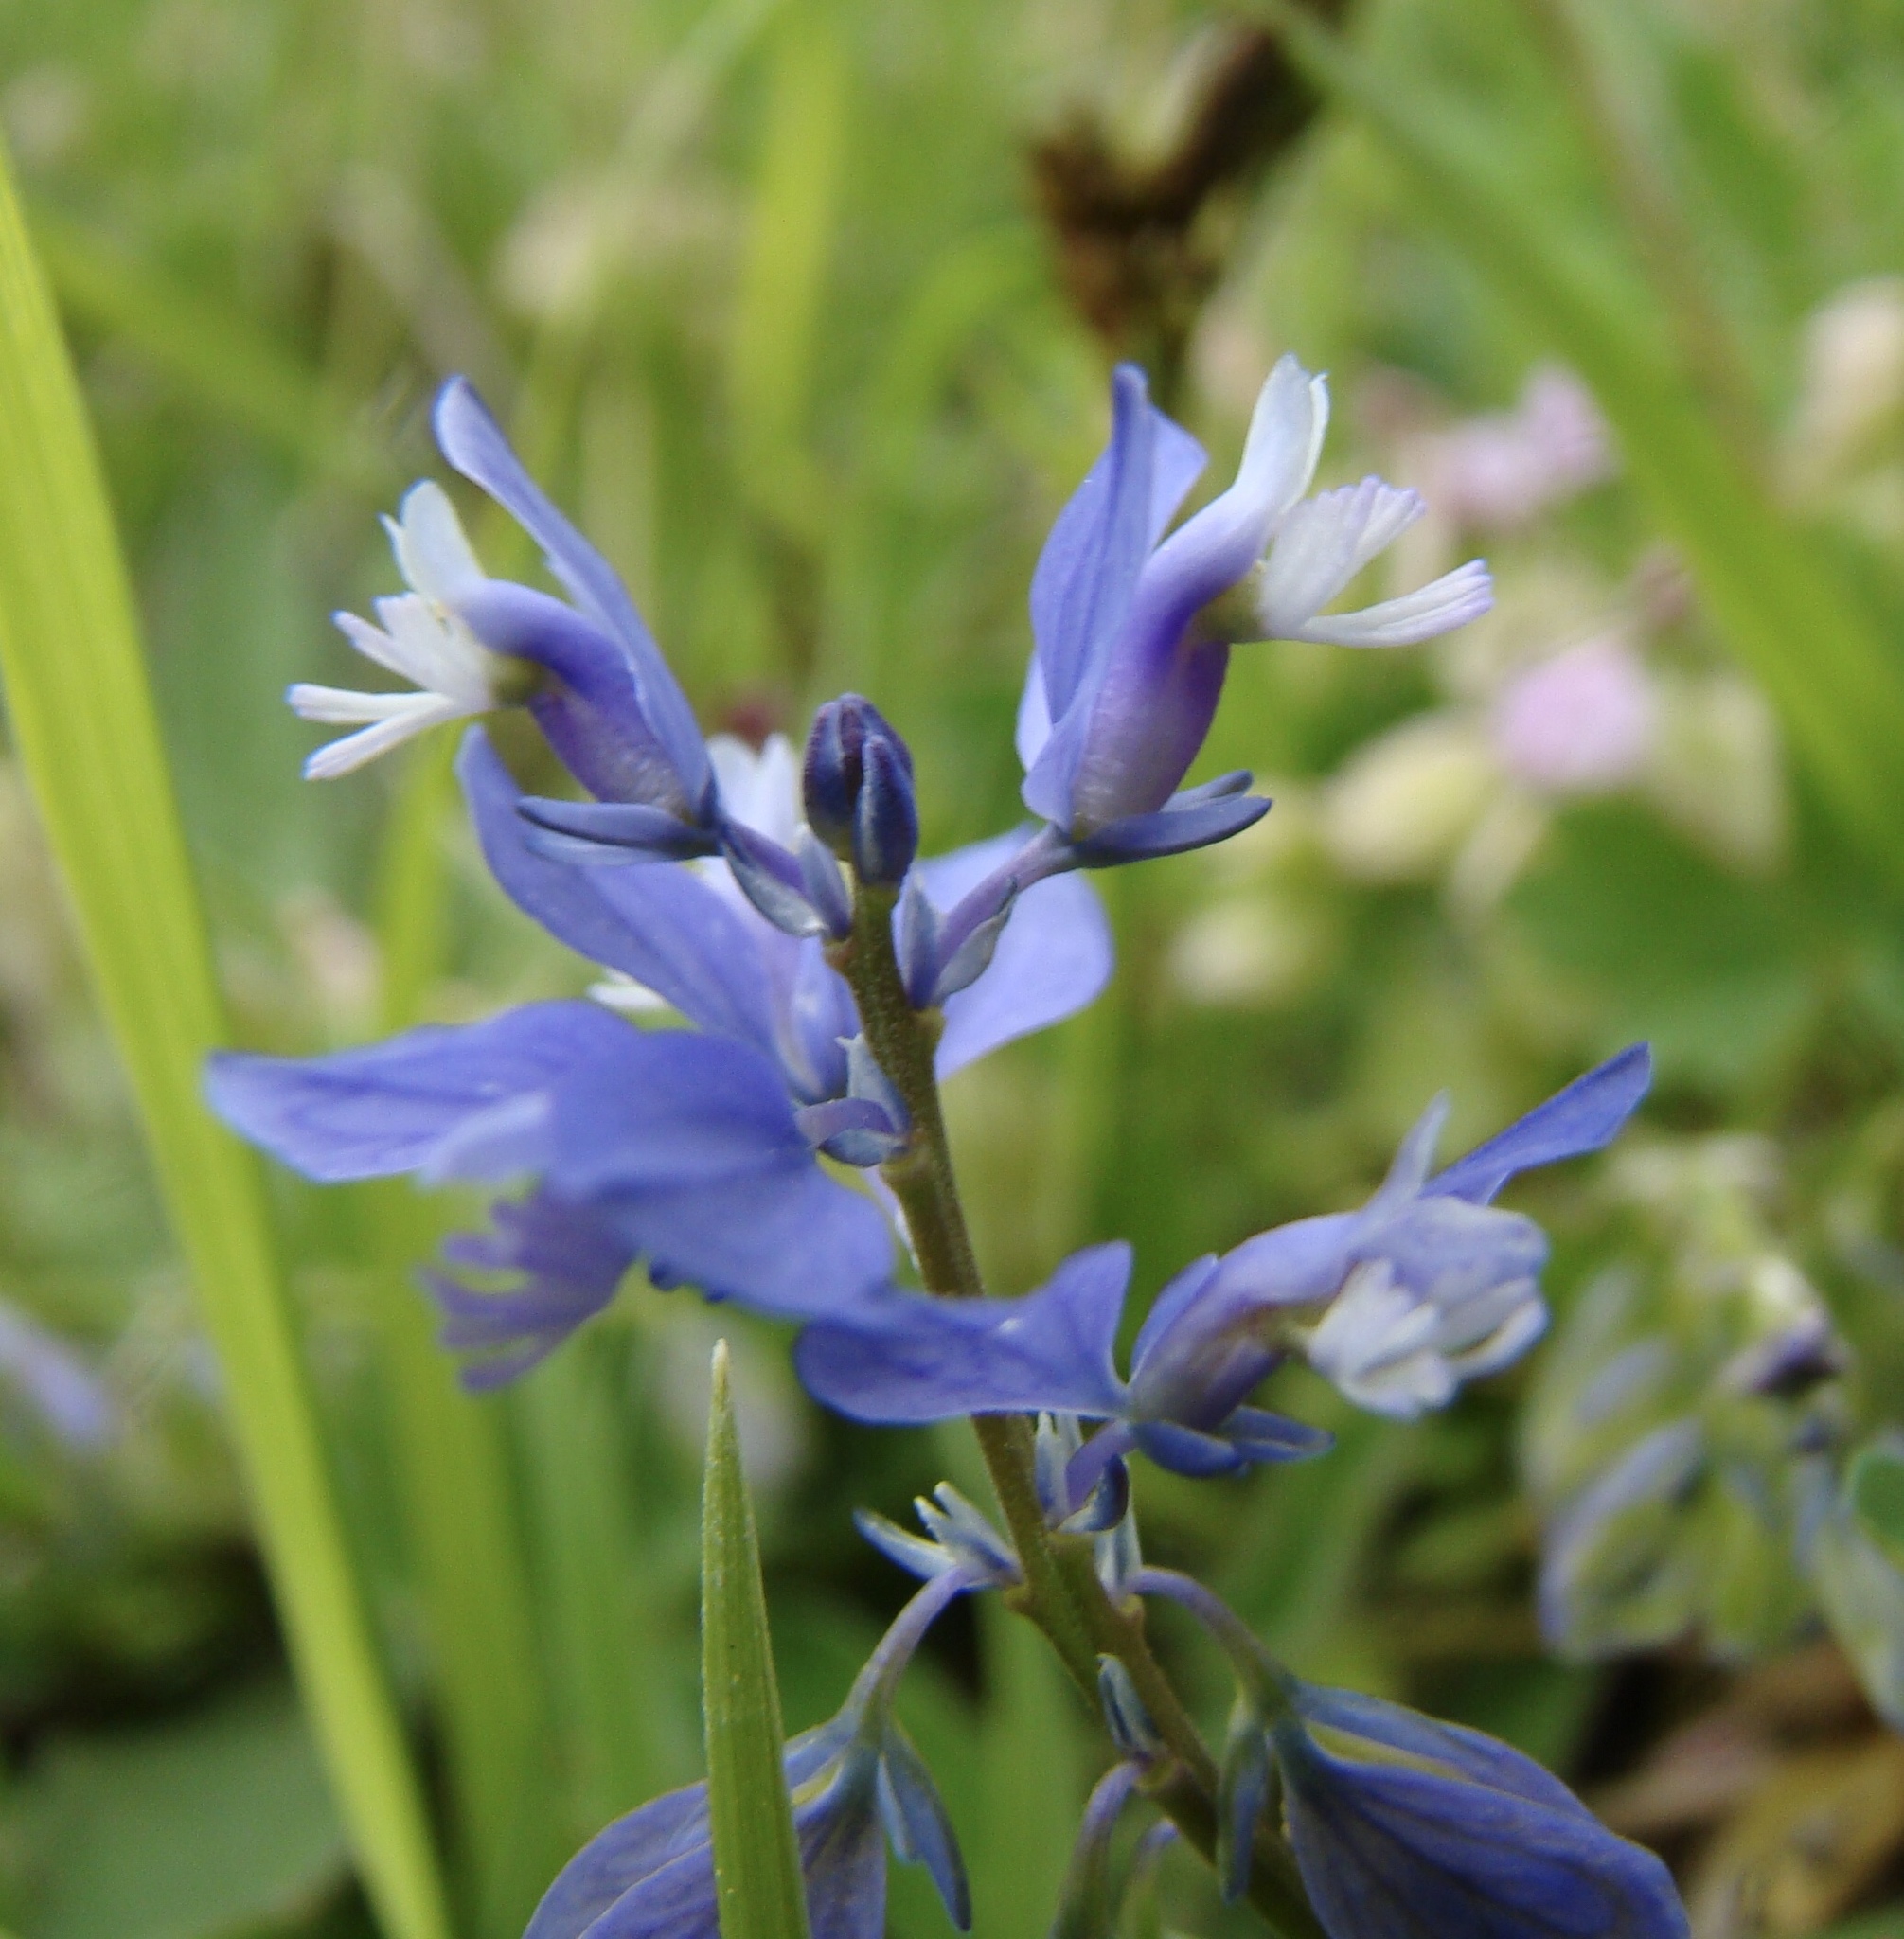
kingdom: Plantae
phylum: Tracheophyta
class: Magnoliopsida
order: Fabales
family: Polygalaceae
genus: Polygala
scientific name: Polygala vulgaris
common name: Common milkwort
